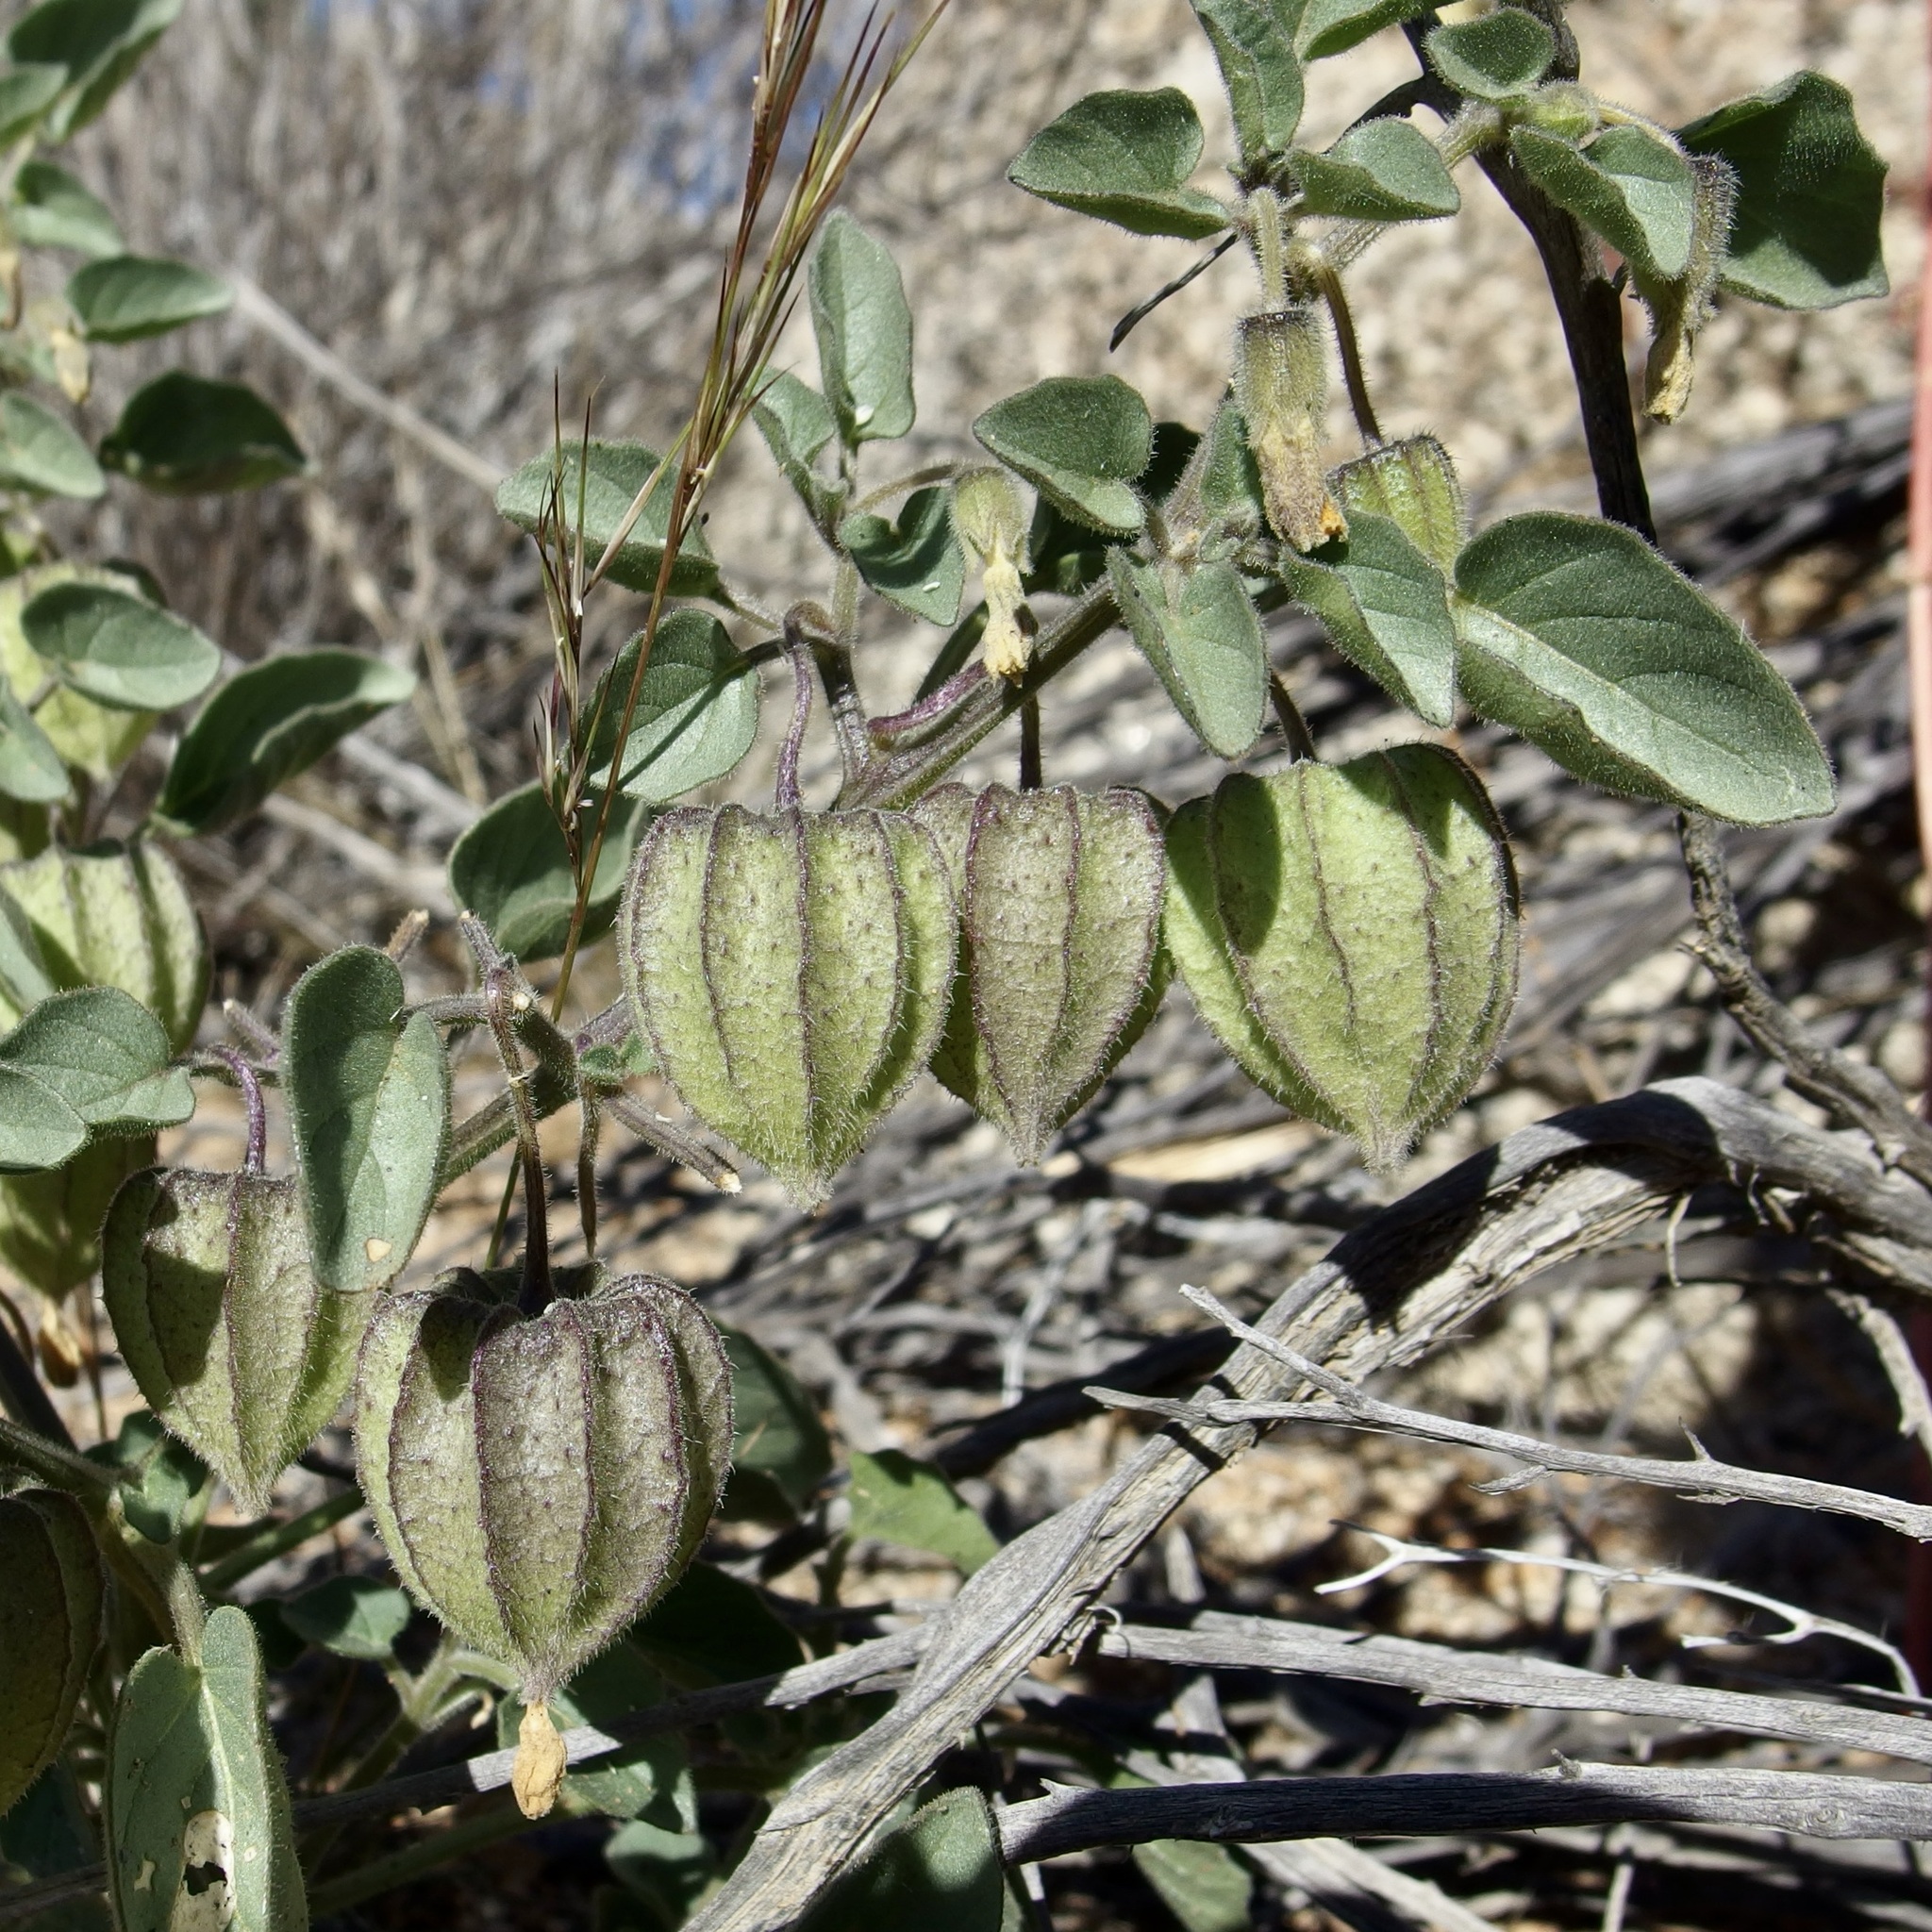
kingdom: Plantae
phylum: Tracheophyta
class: Magnoliopsida
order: Solanales
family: Solanaceae
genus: Physalis
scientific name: Physalis crassifolia
